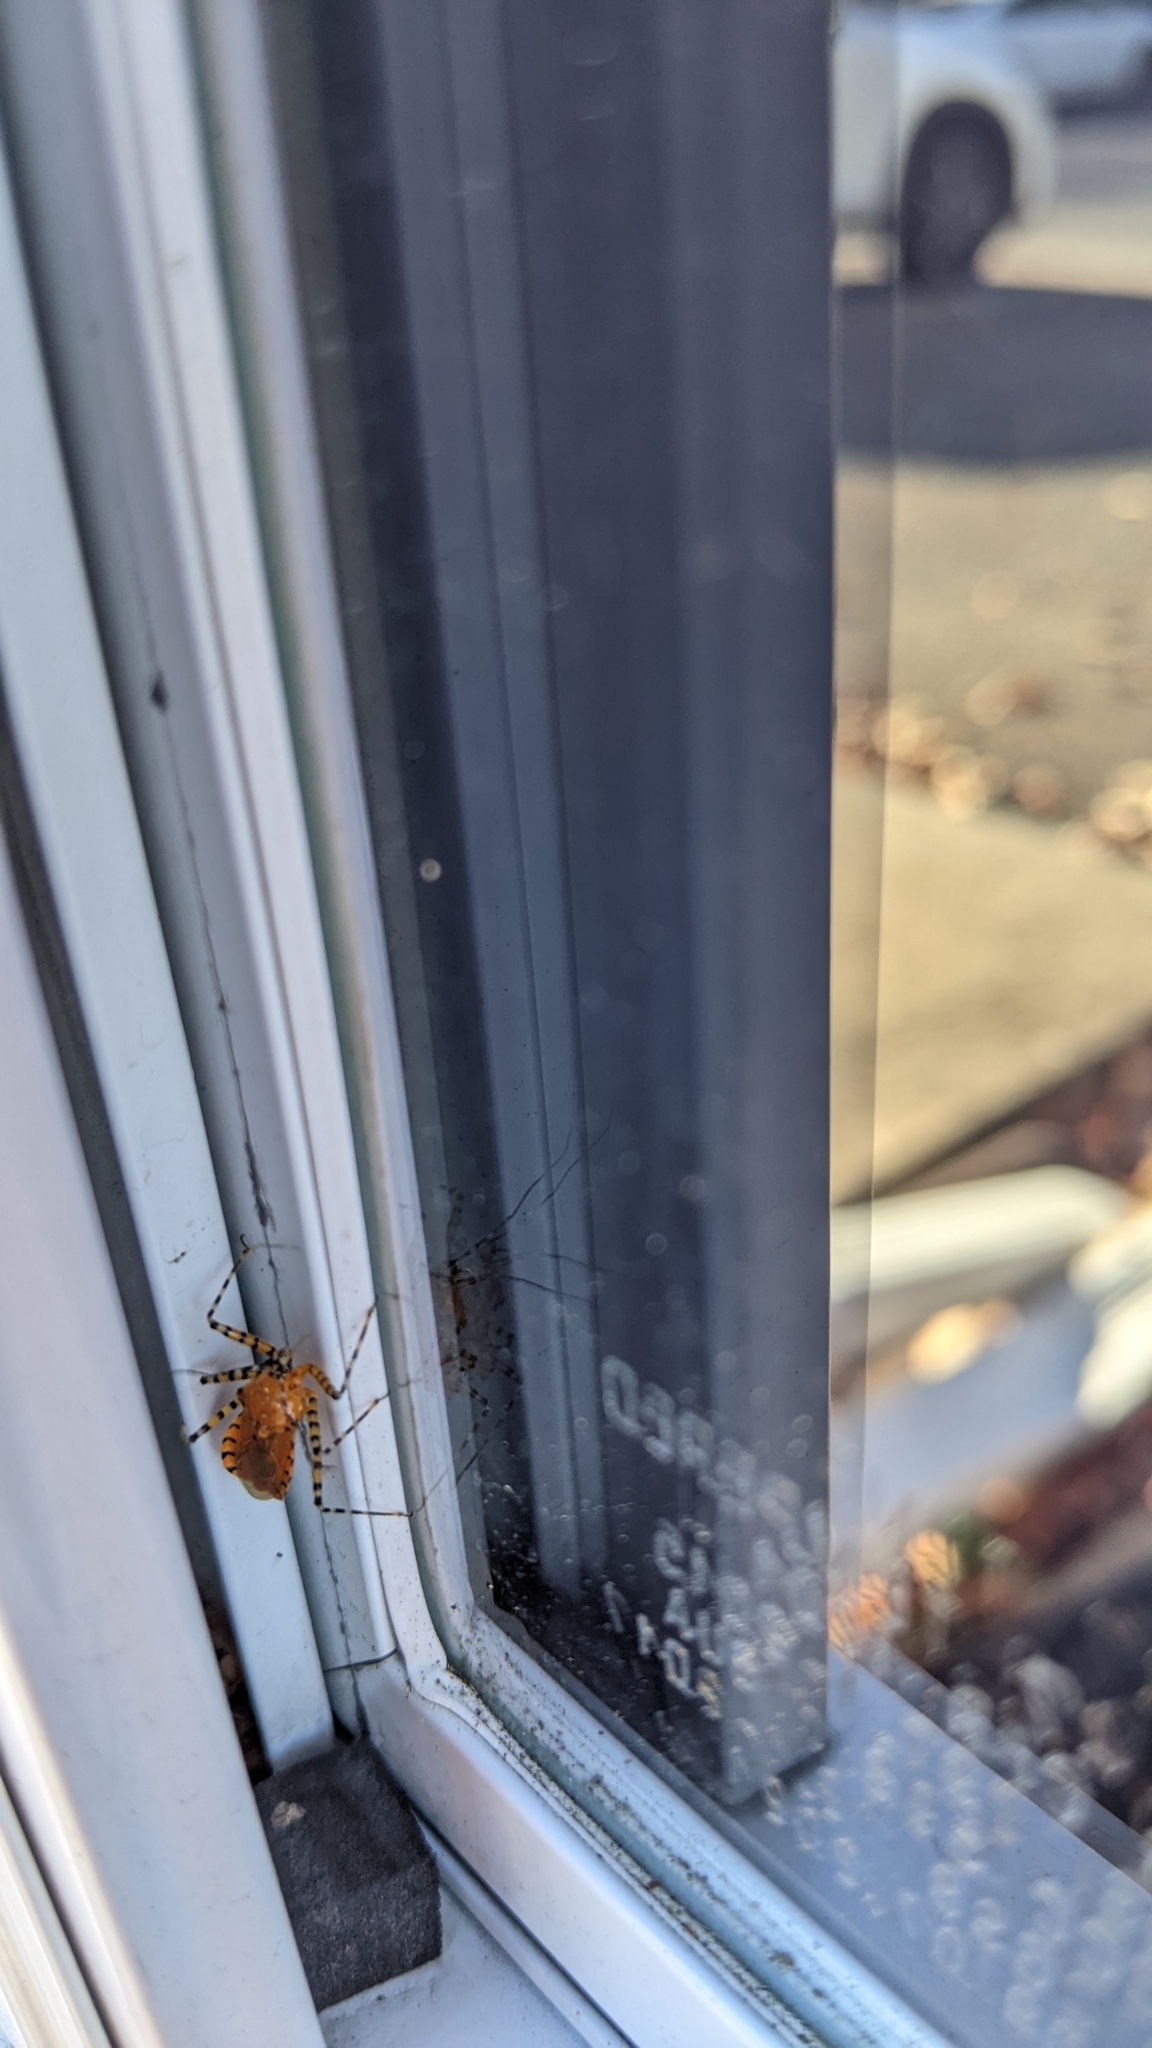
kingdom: Animalia
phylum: Arthropoda
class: Insecta
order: Hemiptera
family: Reduviidae
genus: Pselliopus
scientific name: Pselliopus barberi
